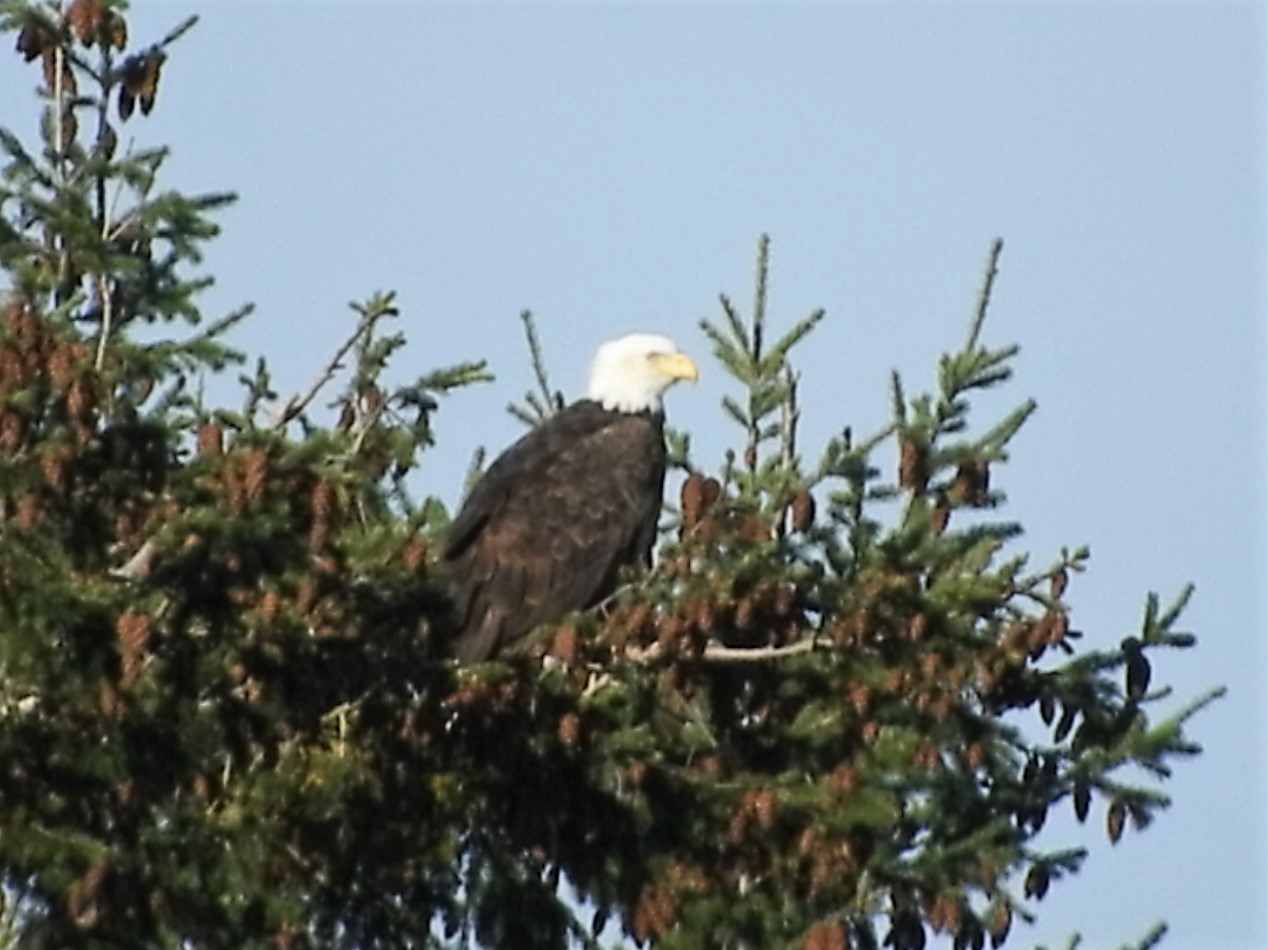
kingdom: Animalia
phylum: Chordata
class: Aves
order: Accipitriformes
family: Accipitridae
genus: Haliaeetus
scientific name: Haliaeetus leucocephalus
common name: Bald eagle
